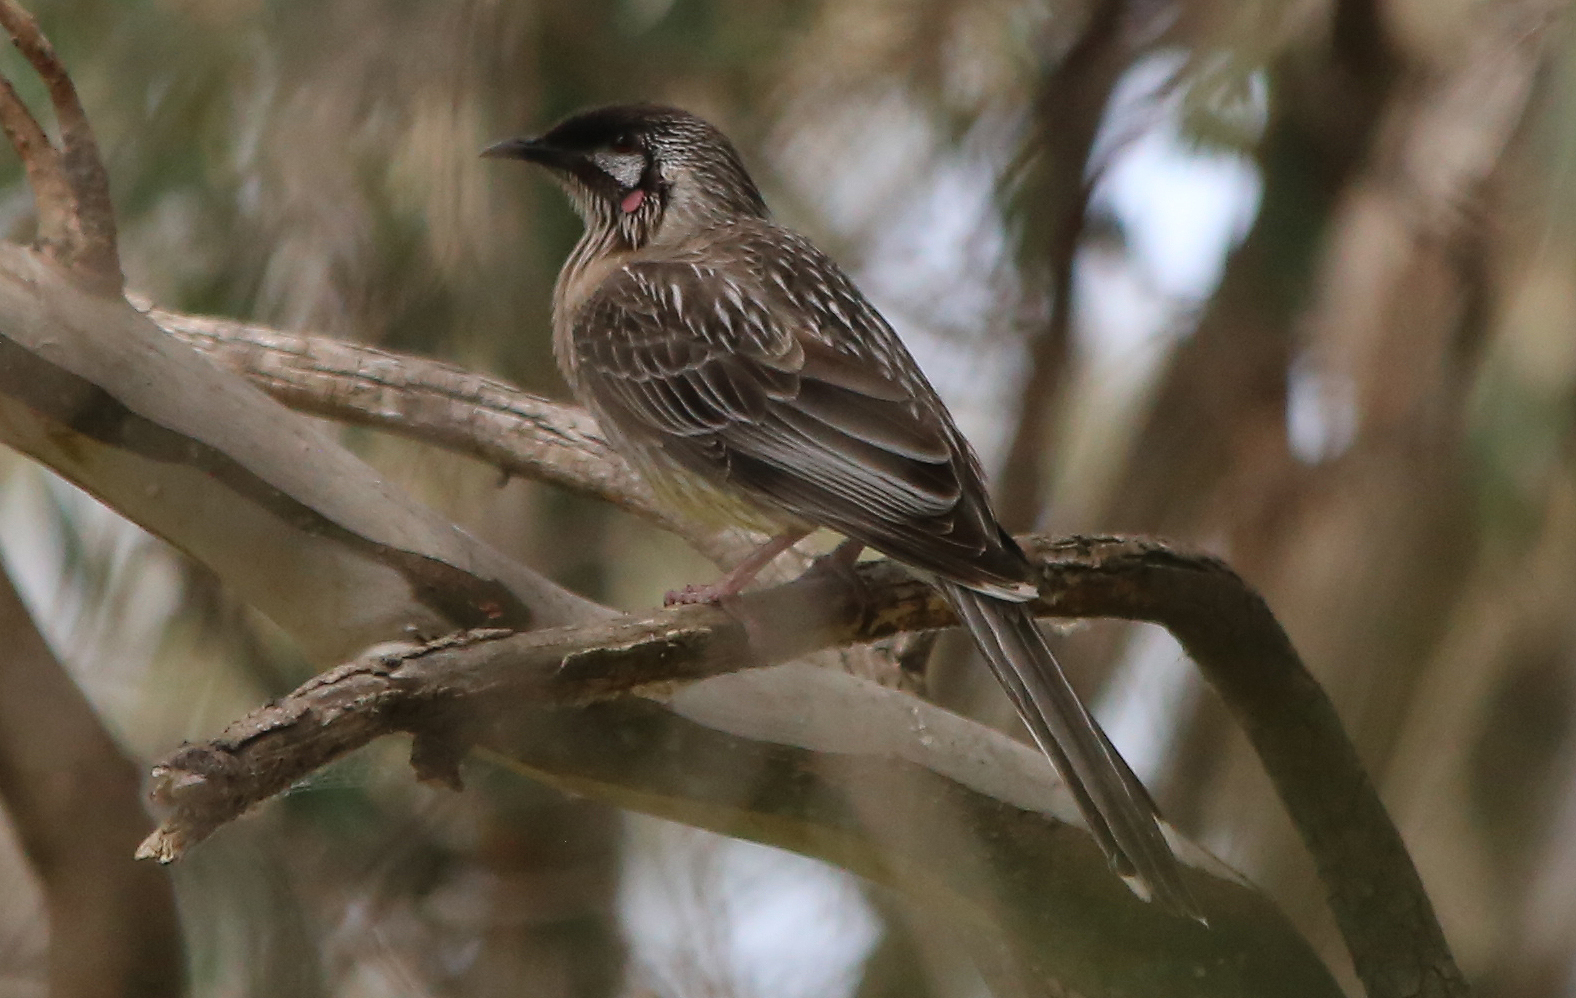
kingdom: Animalia
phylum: Chordata
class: Aves
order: Passeriformes
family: Meliphagidae
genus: Anthochaera
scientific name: Anthochaera carunculata
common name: Red wattlebird
